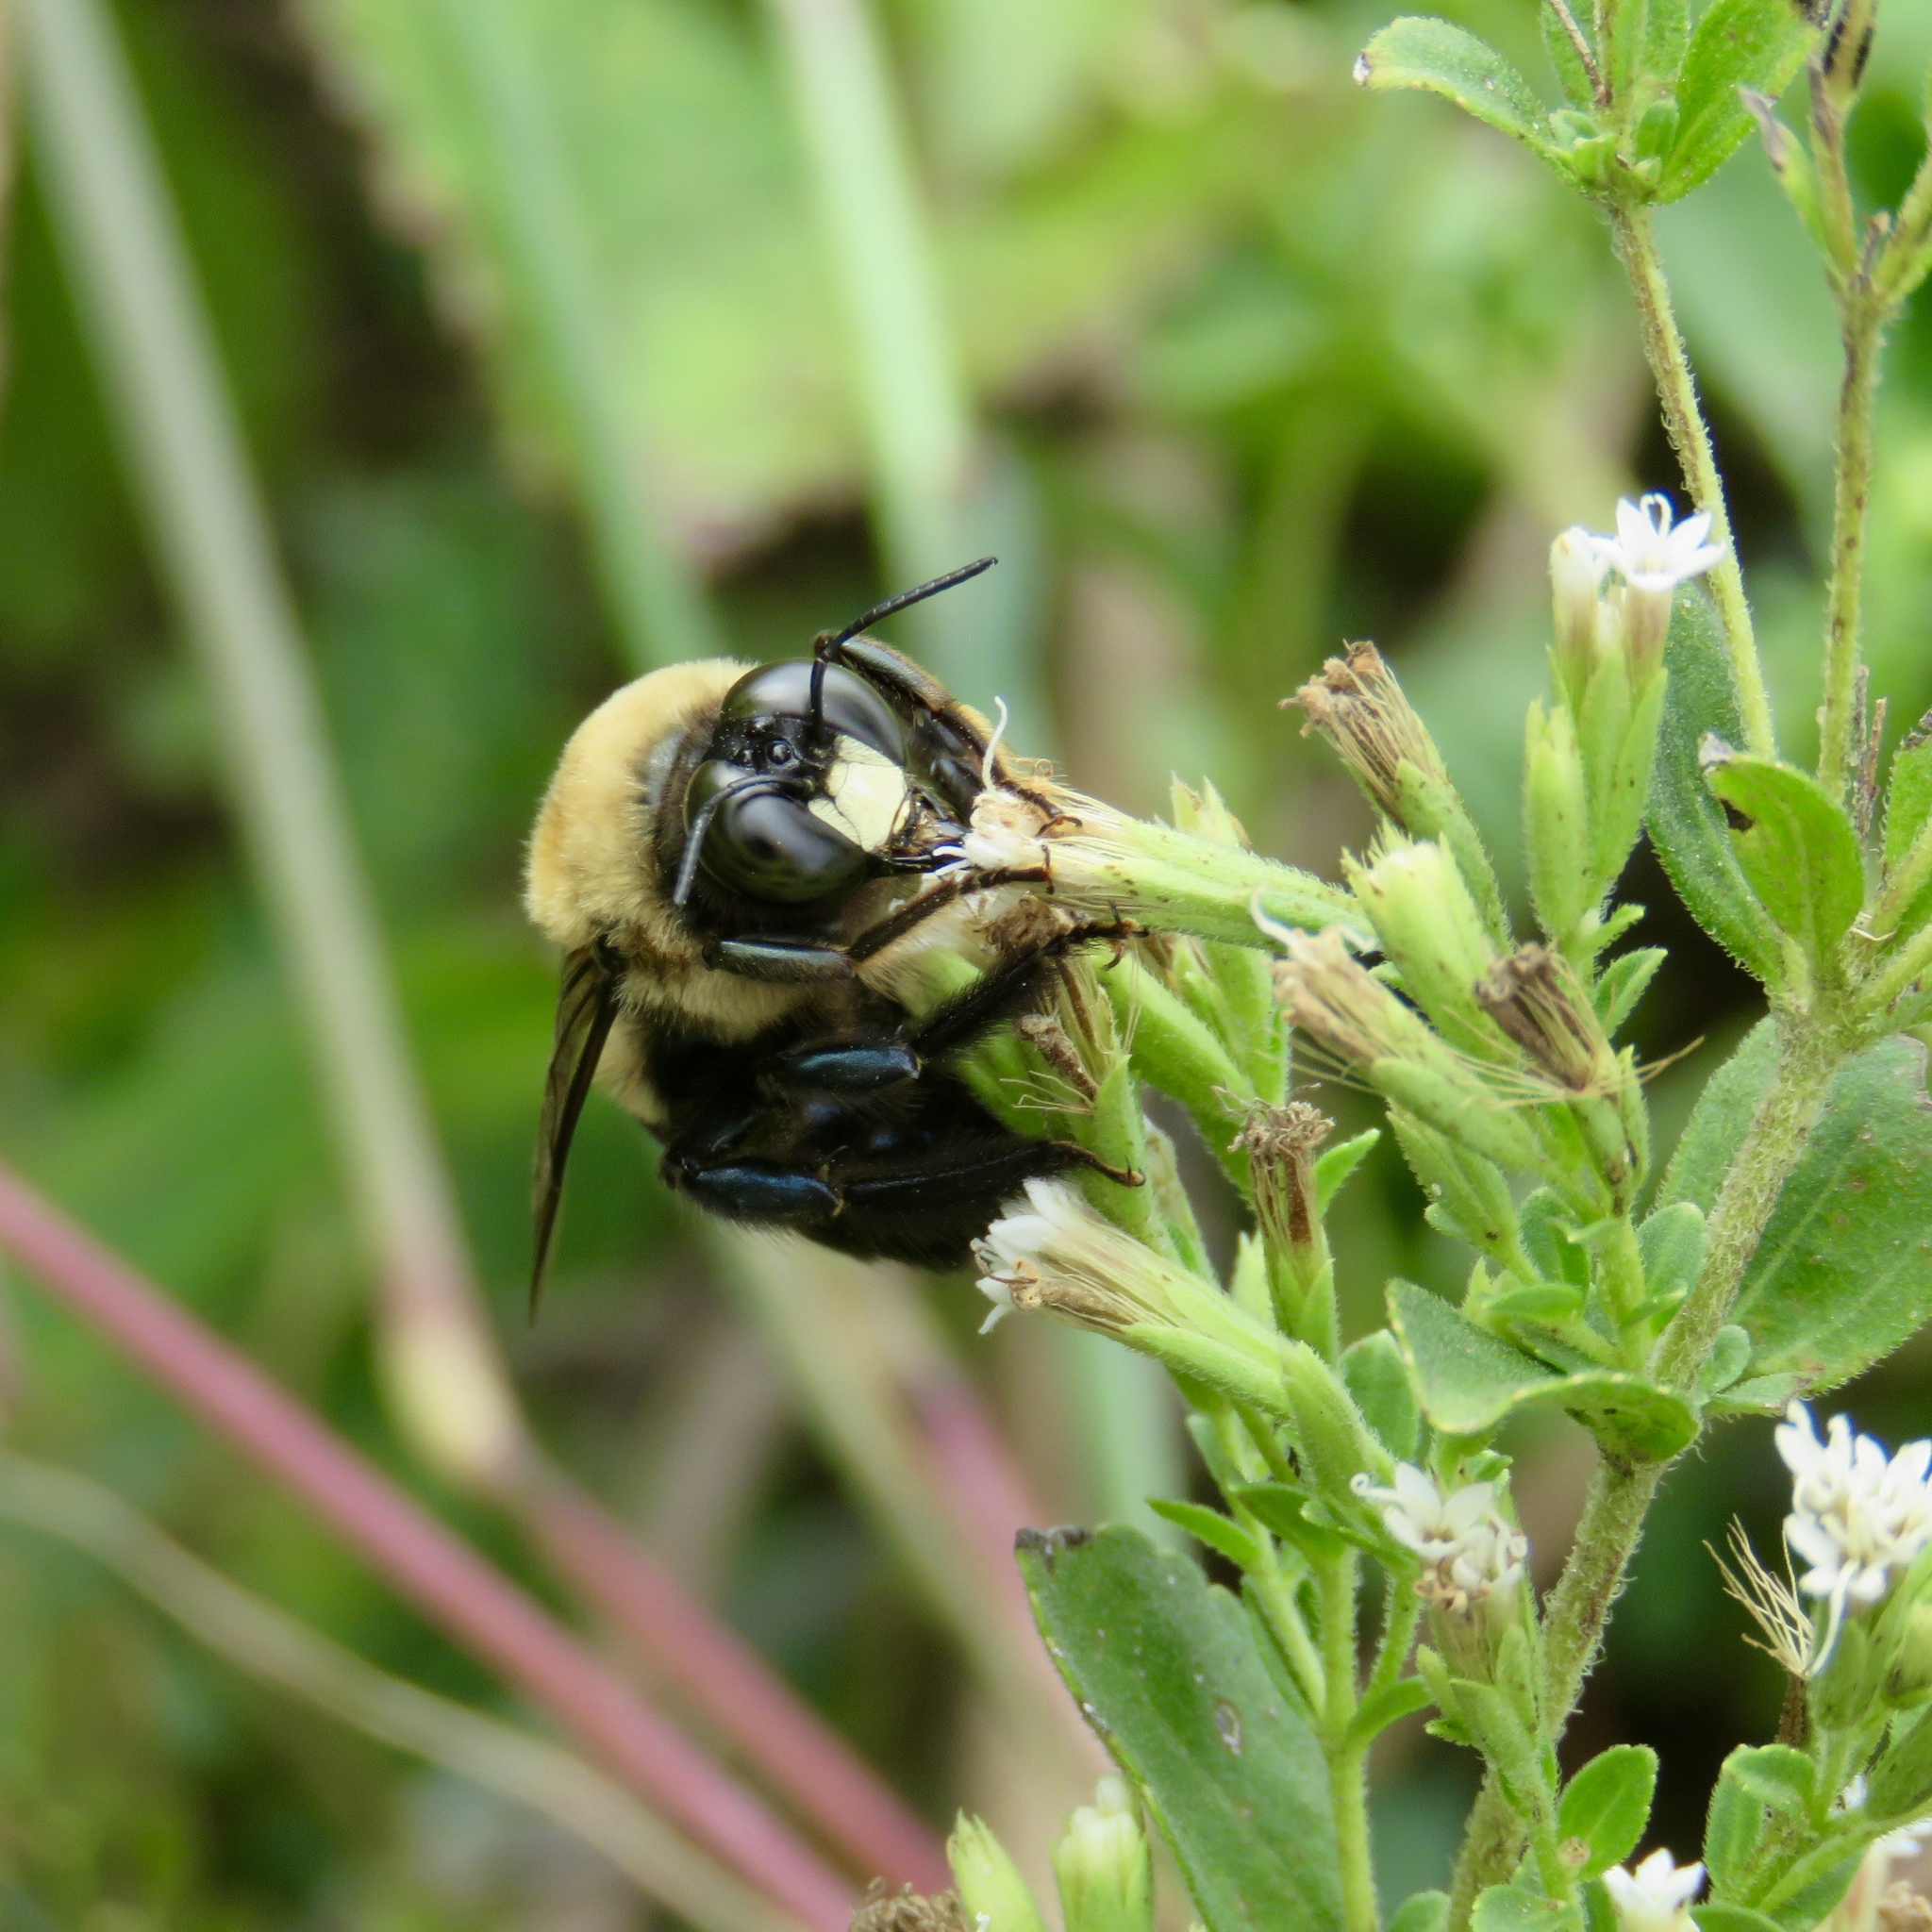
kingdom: Animalia
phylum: Arthropoda
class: Insecta
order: Hymenoptera
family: Apidae
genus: Xylocopa
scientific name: Xylocopa virginica
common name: Carpenter bee
